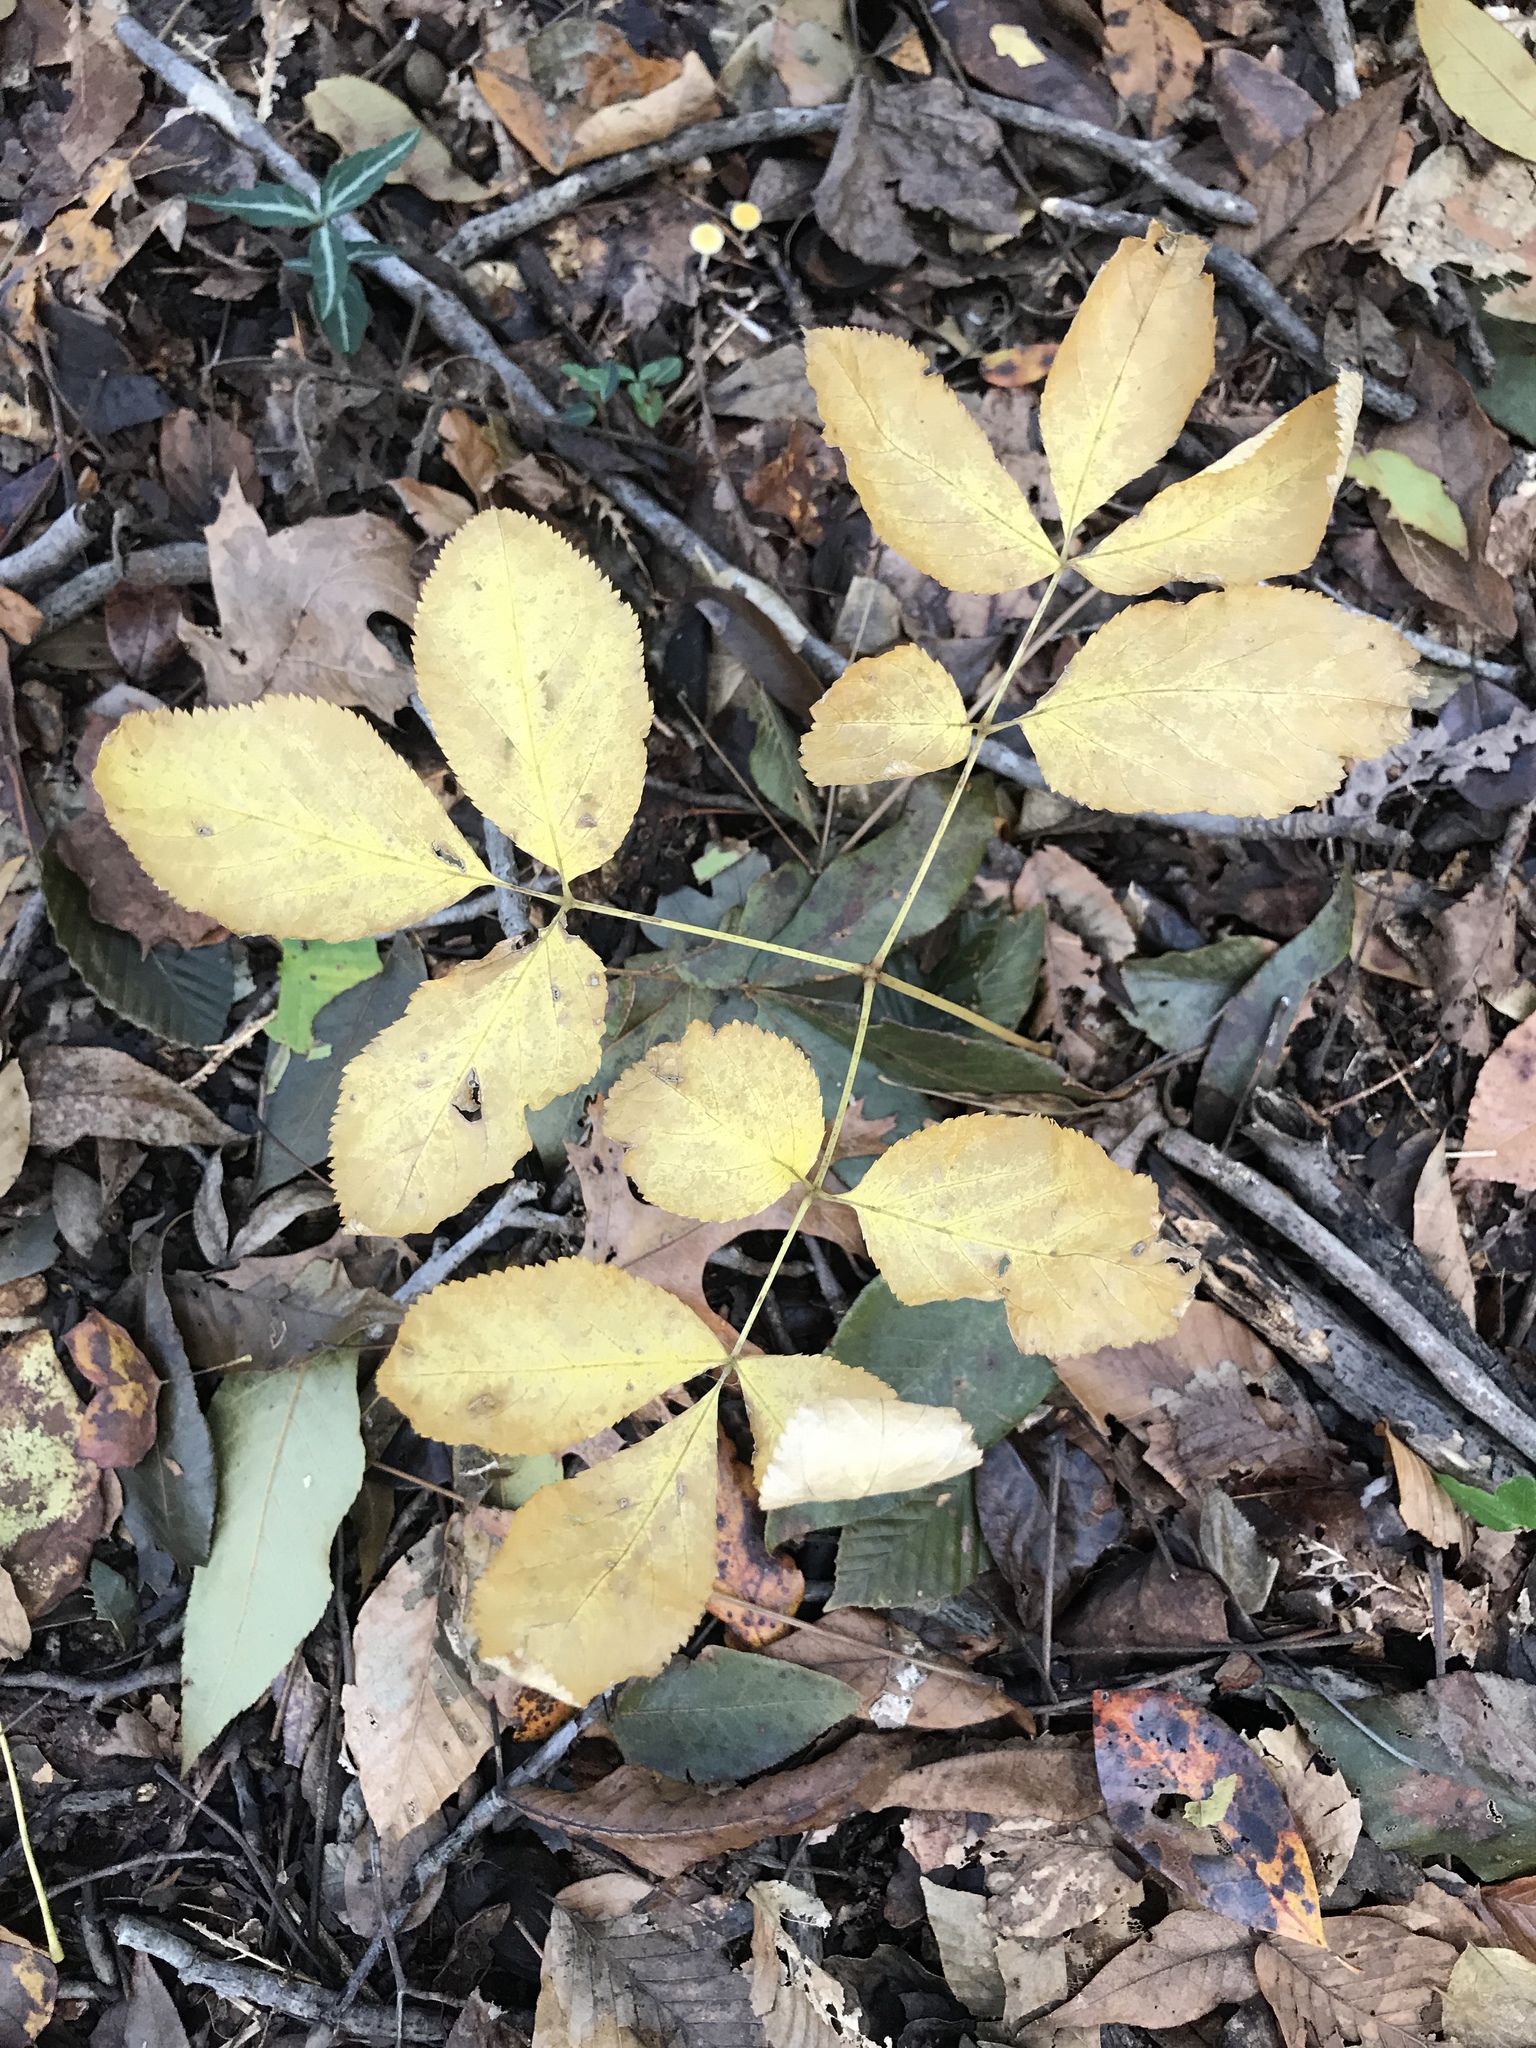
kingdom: Plantae
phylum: Tracheophyta
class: Magnoliopsida
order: Apiales
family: Araliaceae
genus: Aralia
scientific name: Aralia nudicaulis
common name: Wild sarsaparilla
